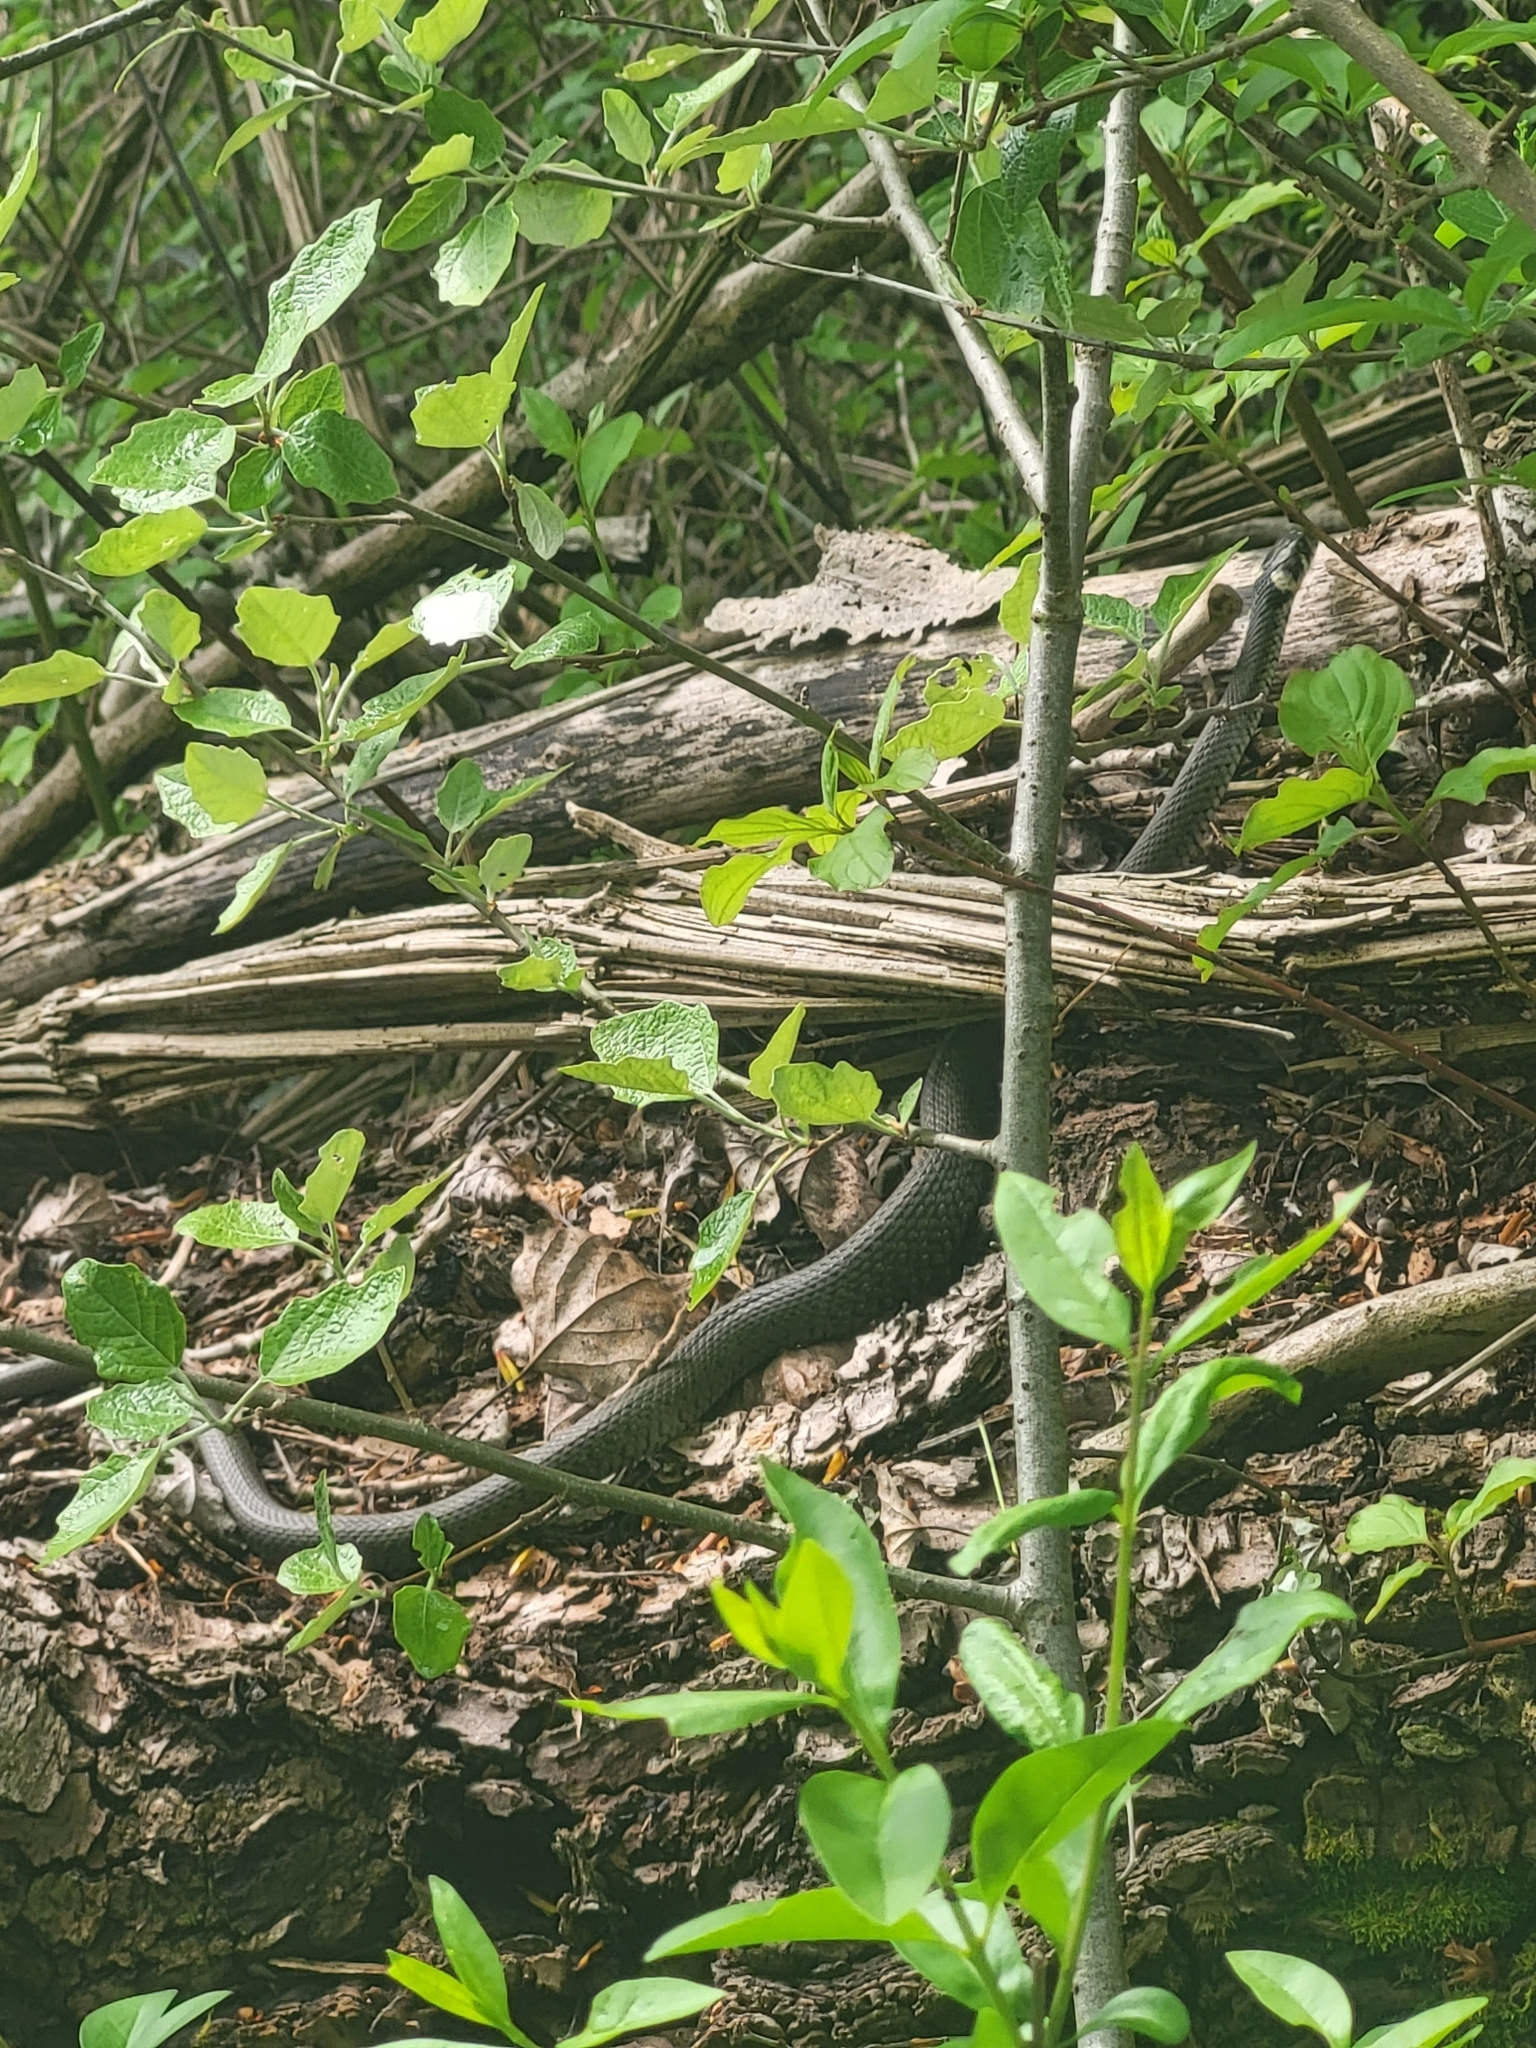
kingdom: Animalia
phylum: Chordata
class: Squamata
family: Colubridae
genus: Natrix
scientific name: Natrix natrix
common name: Grass snake
